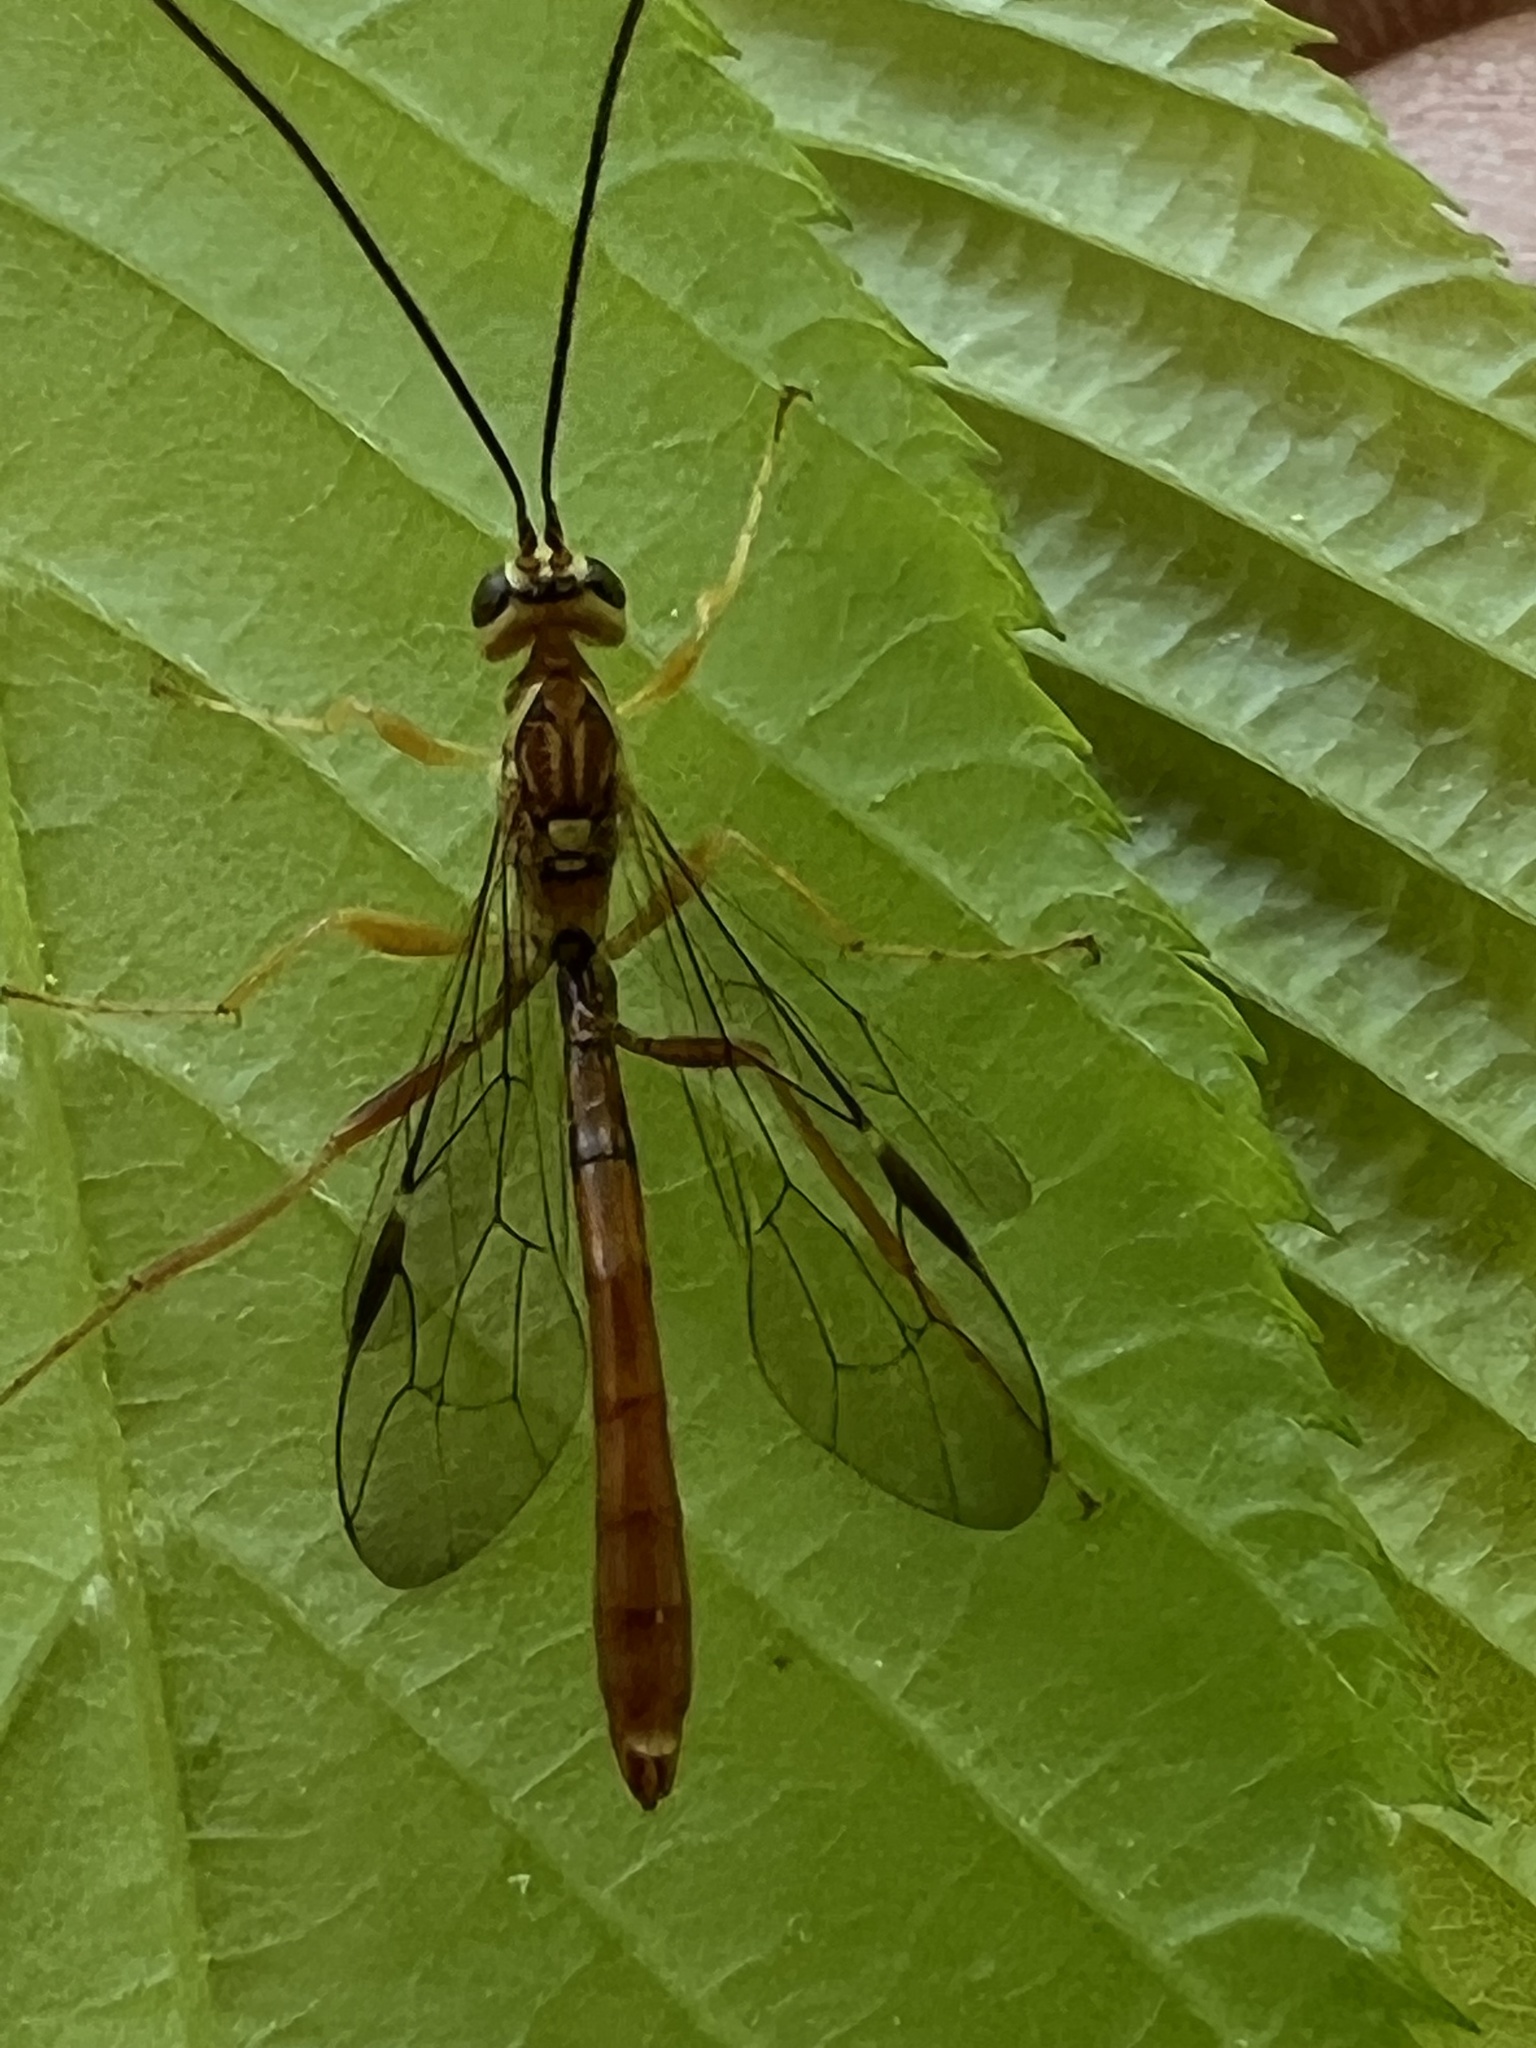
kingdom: Animalia
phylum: Arthropoda
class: Insecta
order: Hymenoptera
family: Ichneumonidae
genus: Megarhyssa
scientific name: Megarhyssa greenei
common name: Greene's giant ichneumonid wasp
